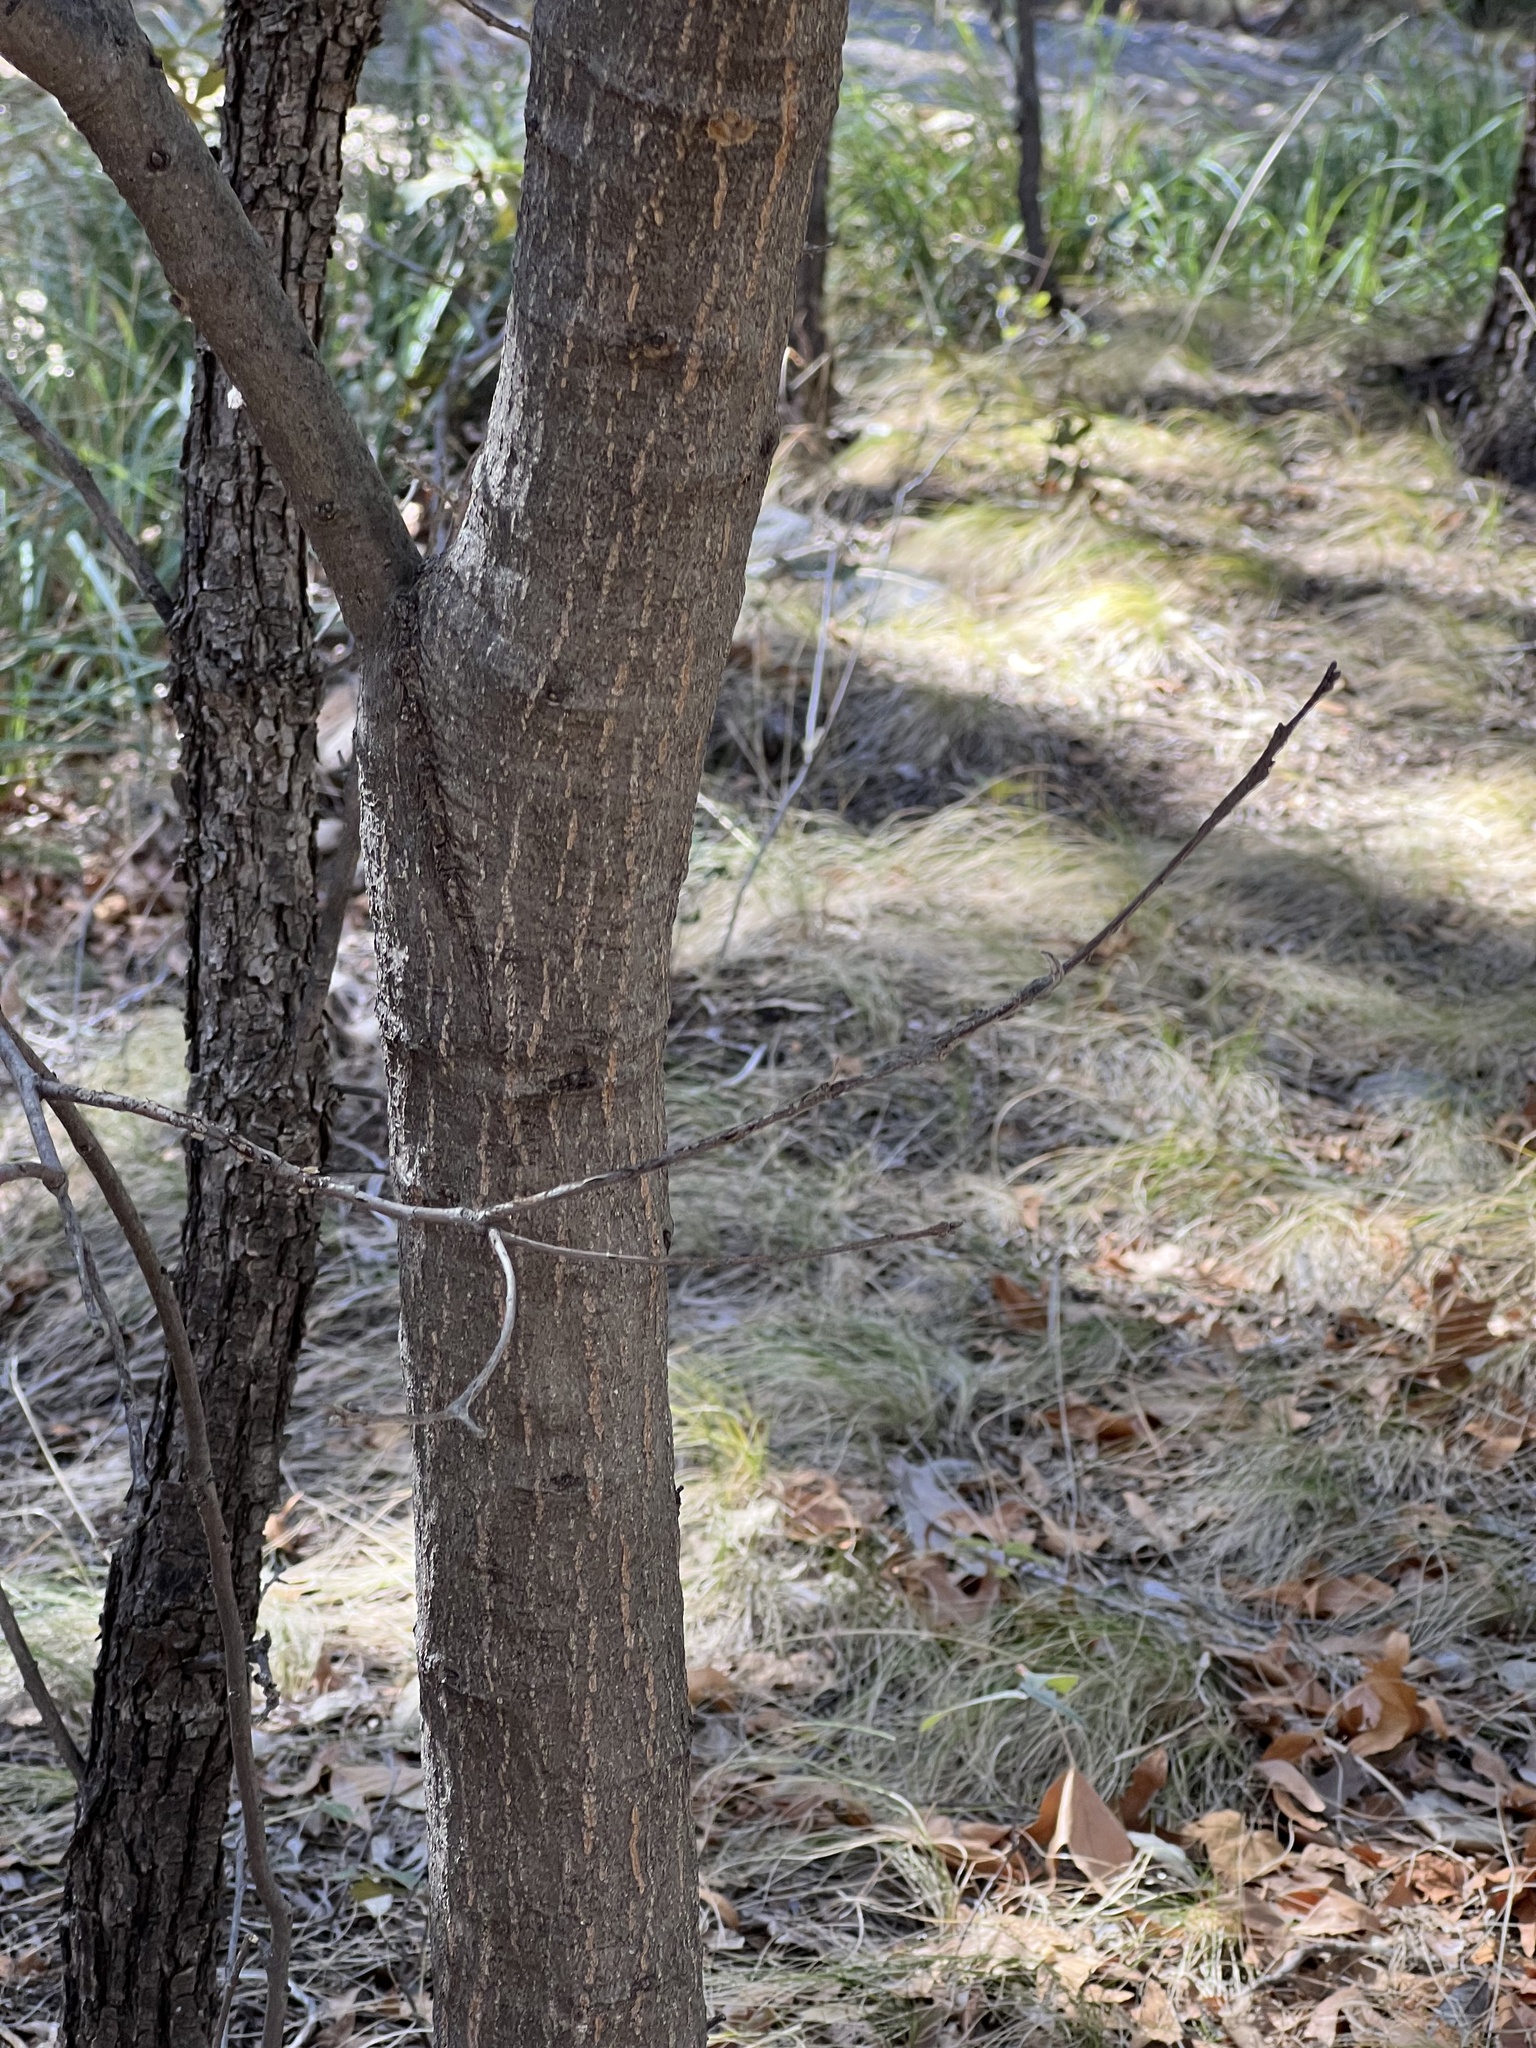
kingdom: Plantae
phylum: Tracheophyta
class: Magnoliopsida
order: Fagales
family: Fagaceae
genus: Quercus
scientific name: Quercus hypoleucoides
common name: Silverleaf oak
